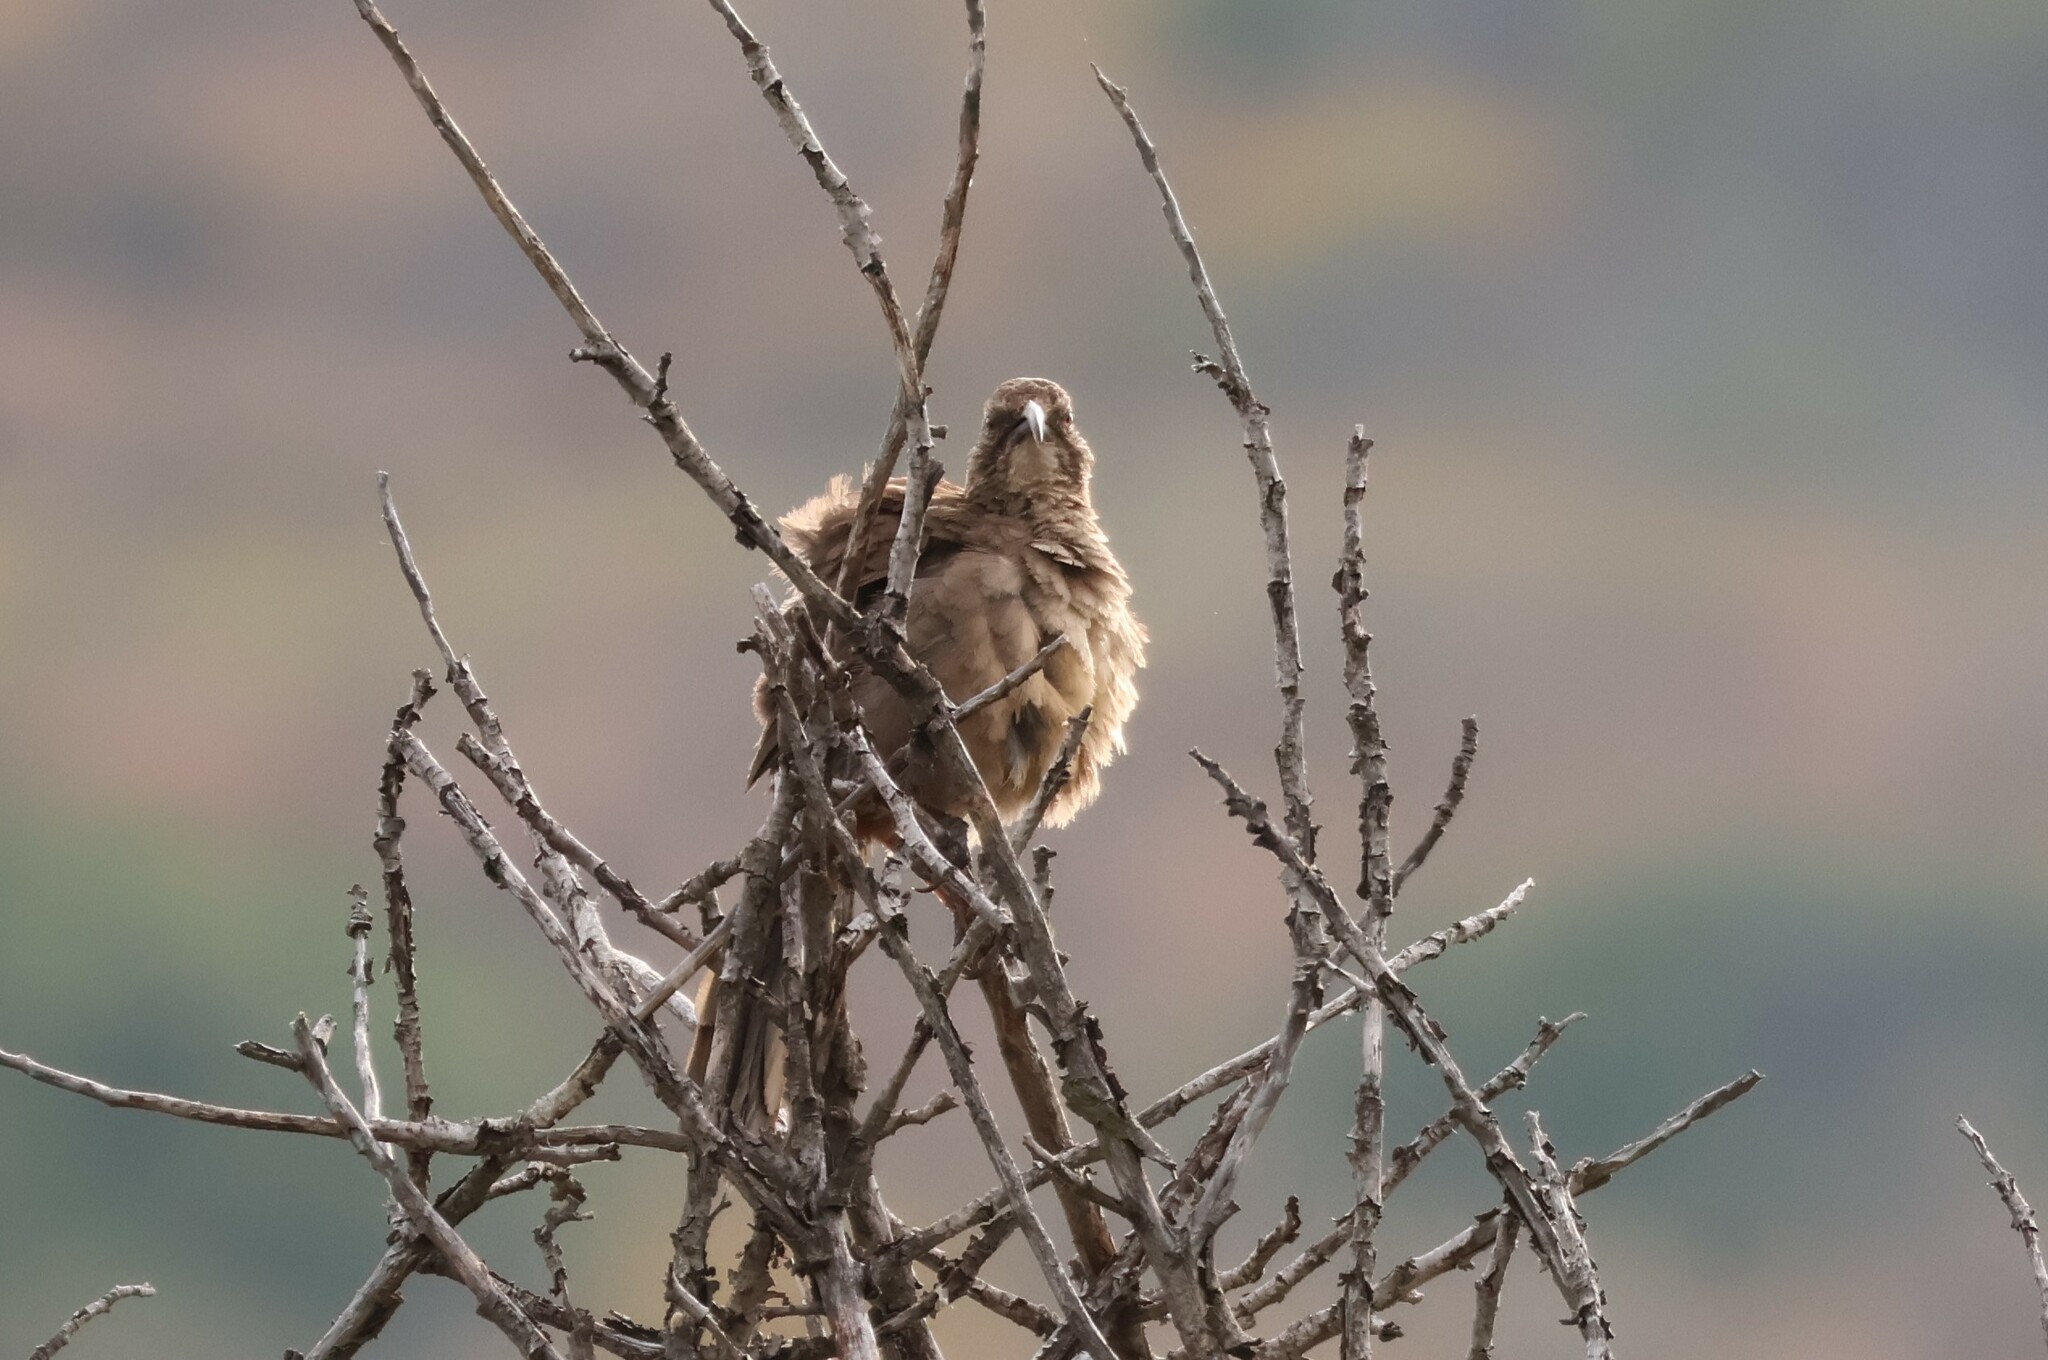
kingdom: Animalia
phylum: Chordata
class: Aves
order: Passeriformes
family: Mimidae
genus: Toxostoma
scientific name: Toxostoma redivivum
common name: California thrasher
